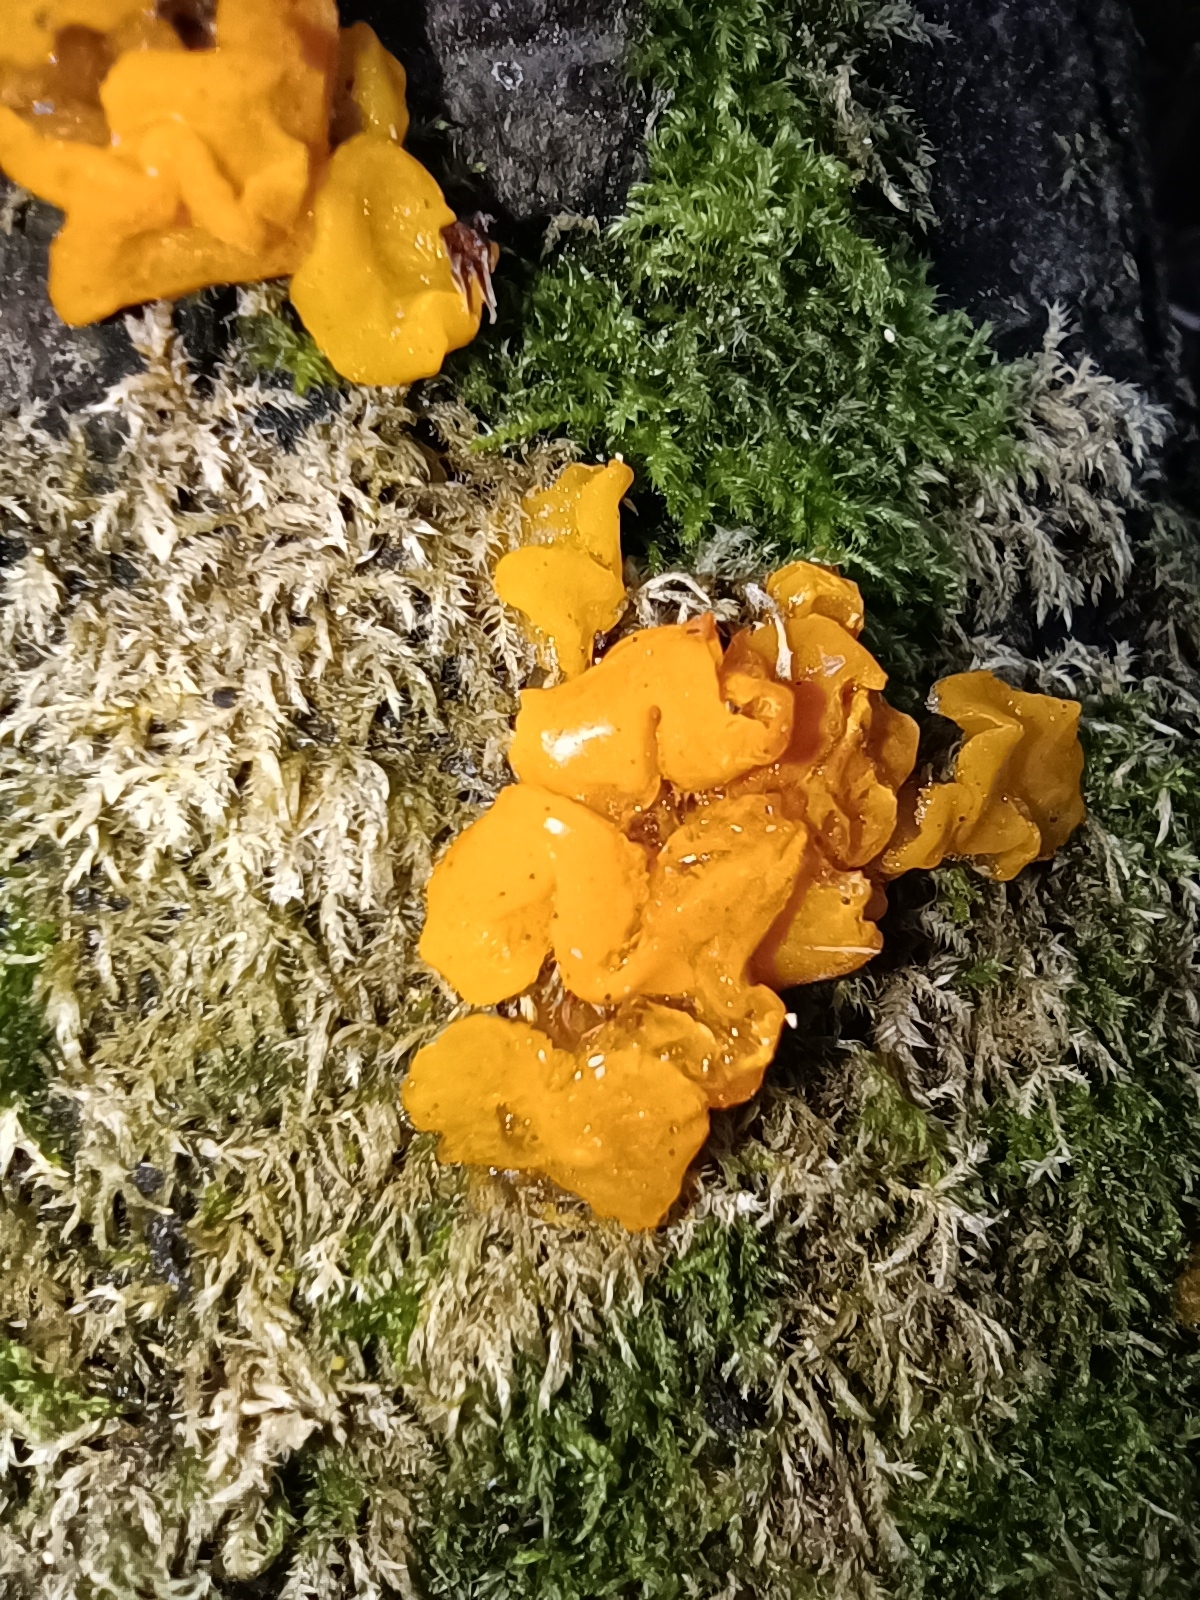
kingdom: Fungi
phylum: Basidiomycota
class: Tremellomycetes
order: Tremellales
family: Tremellaceae
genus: Tremella
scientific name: Tremella mesenterica
